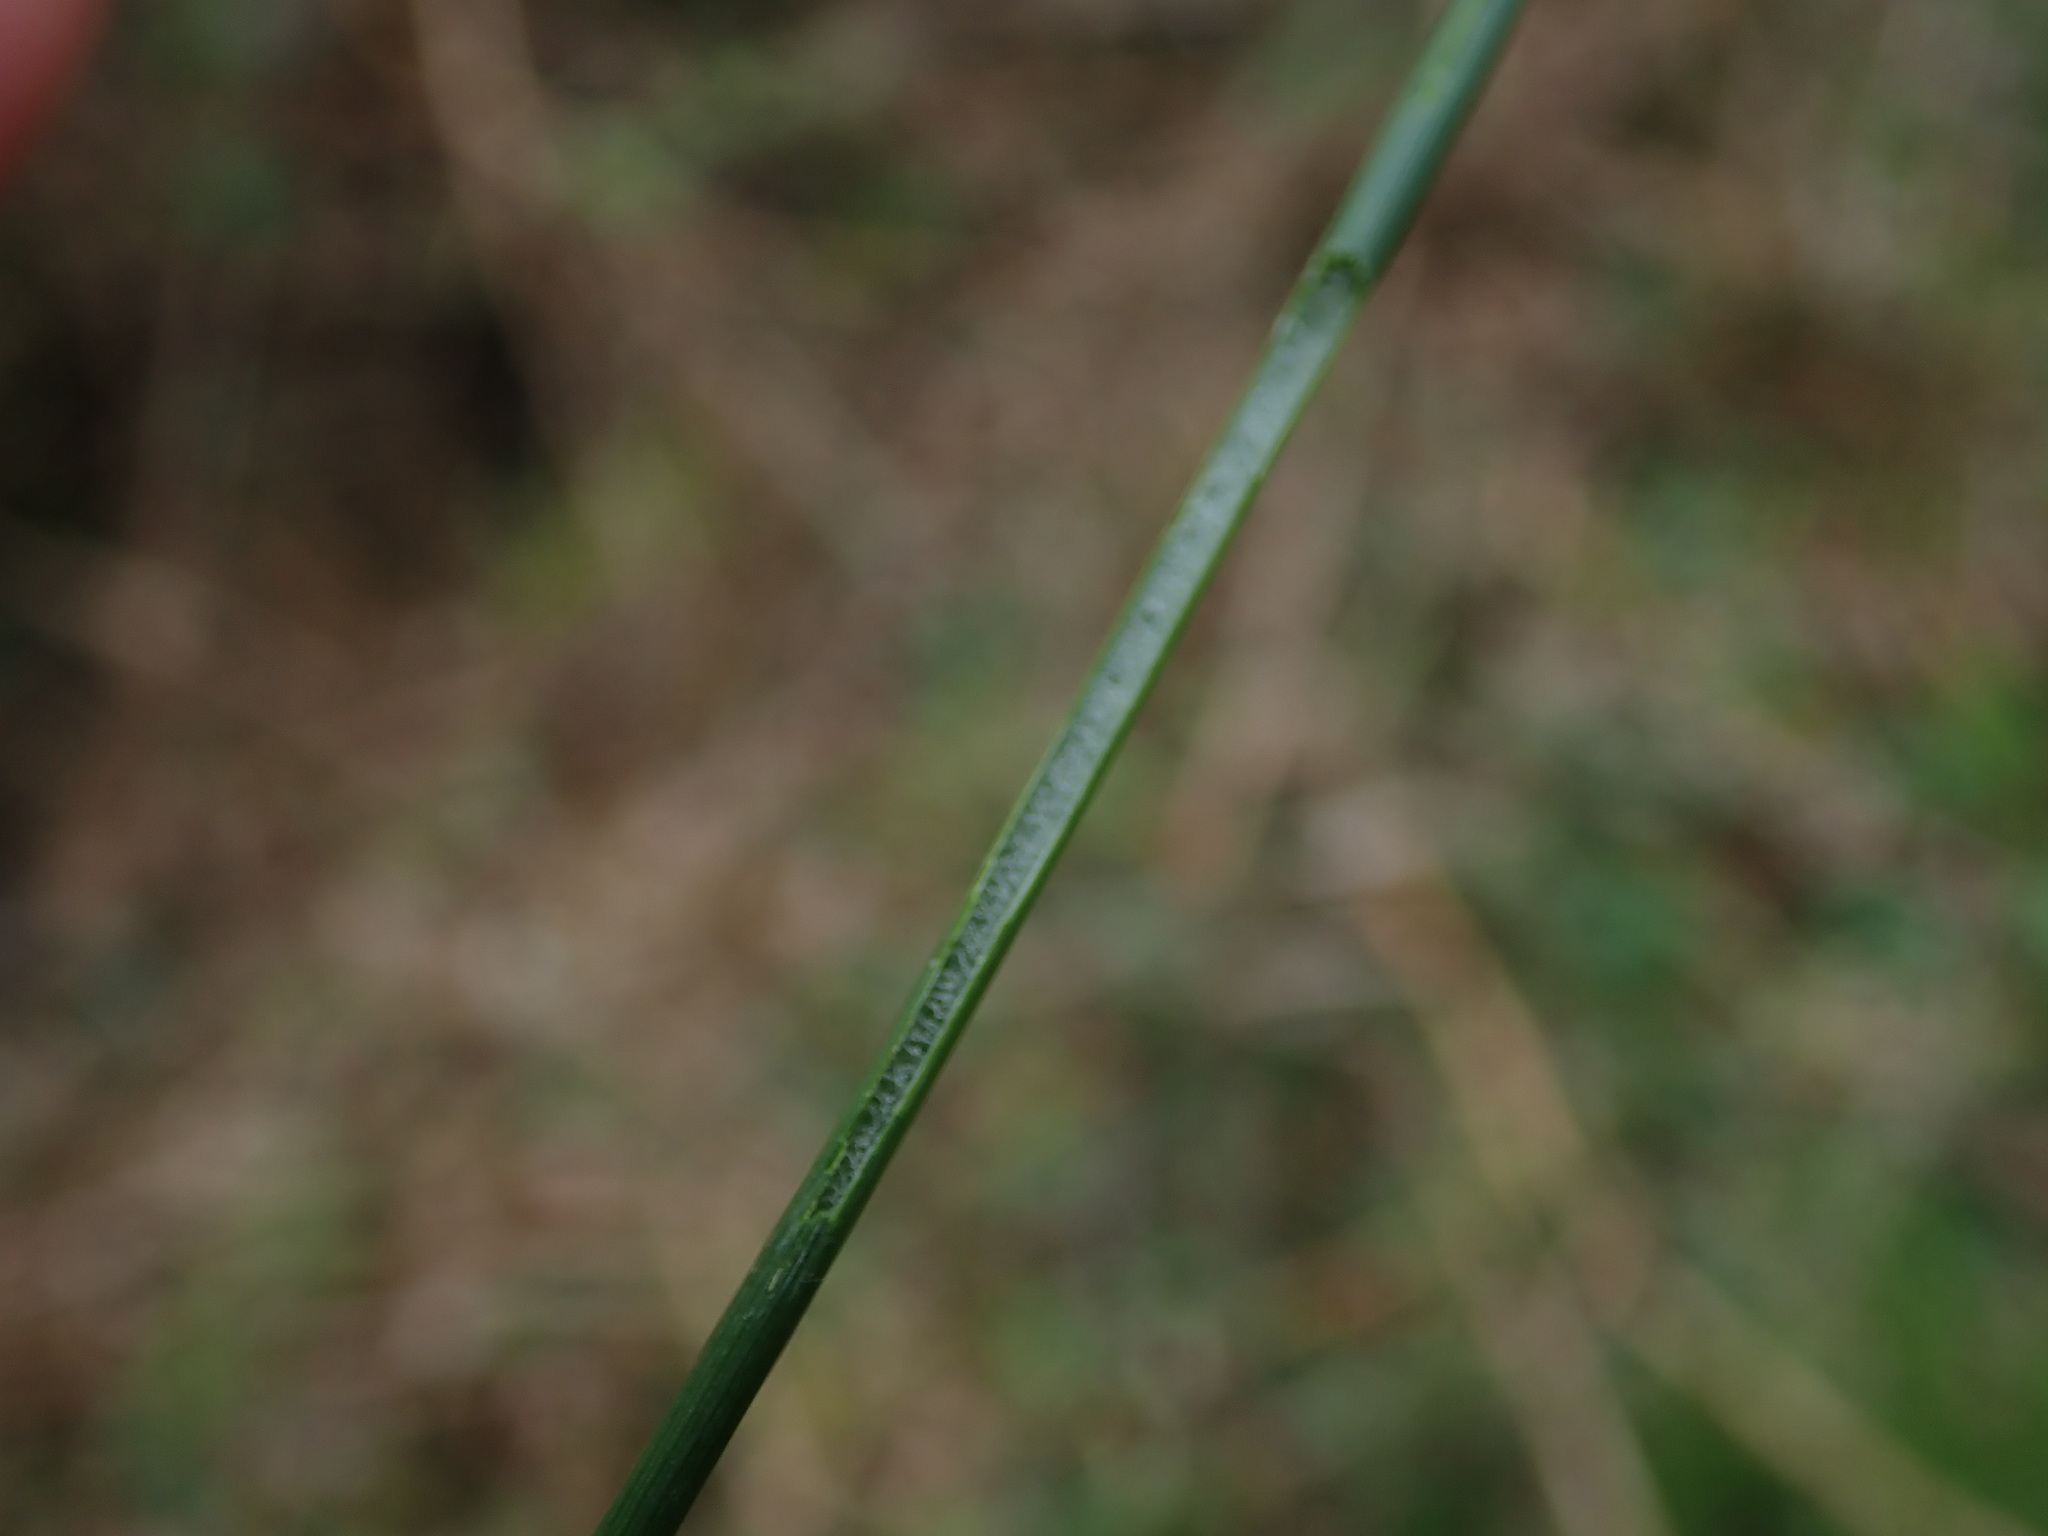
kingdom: Plantae
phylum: Tracheophyta
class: Liliopsida
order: Poales
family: Juncaceae
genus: Juncus
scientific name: Juncus effusus
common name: Soft rush
